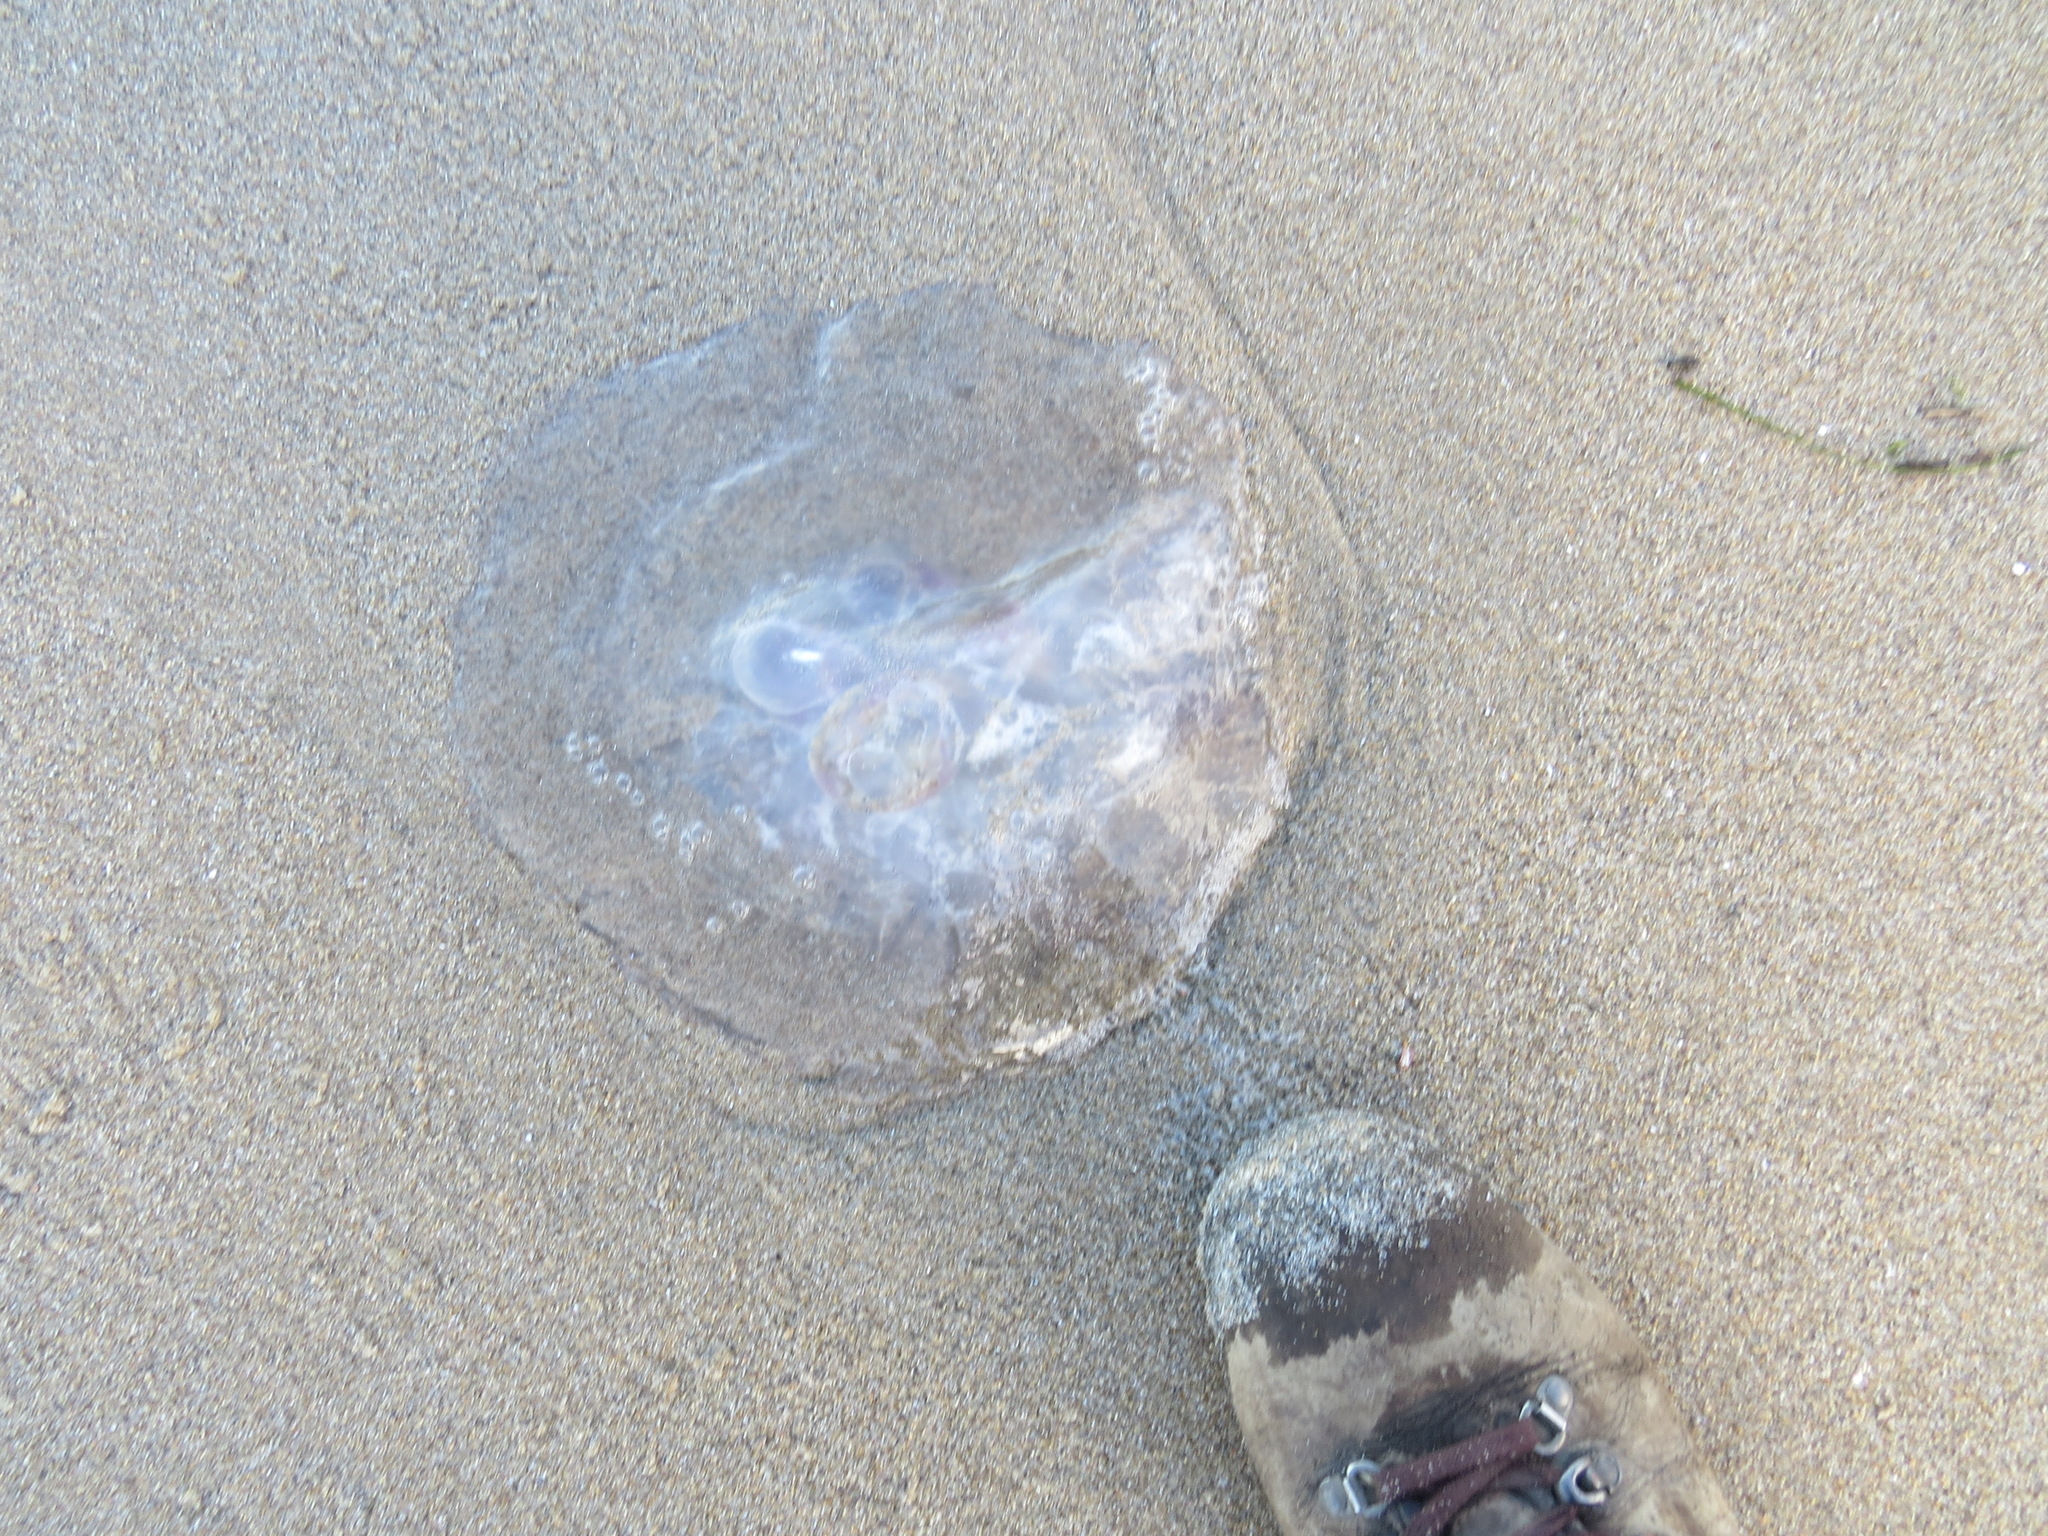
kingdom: Animalia
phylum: Cnidaria
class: Scyphozoa
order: Semaeostomeae
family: Ulmaridae
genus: Aurelia
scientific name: Aurelia labiata
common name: Pacific moon jelly
